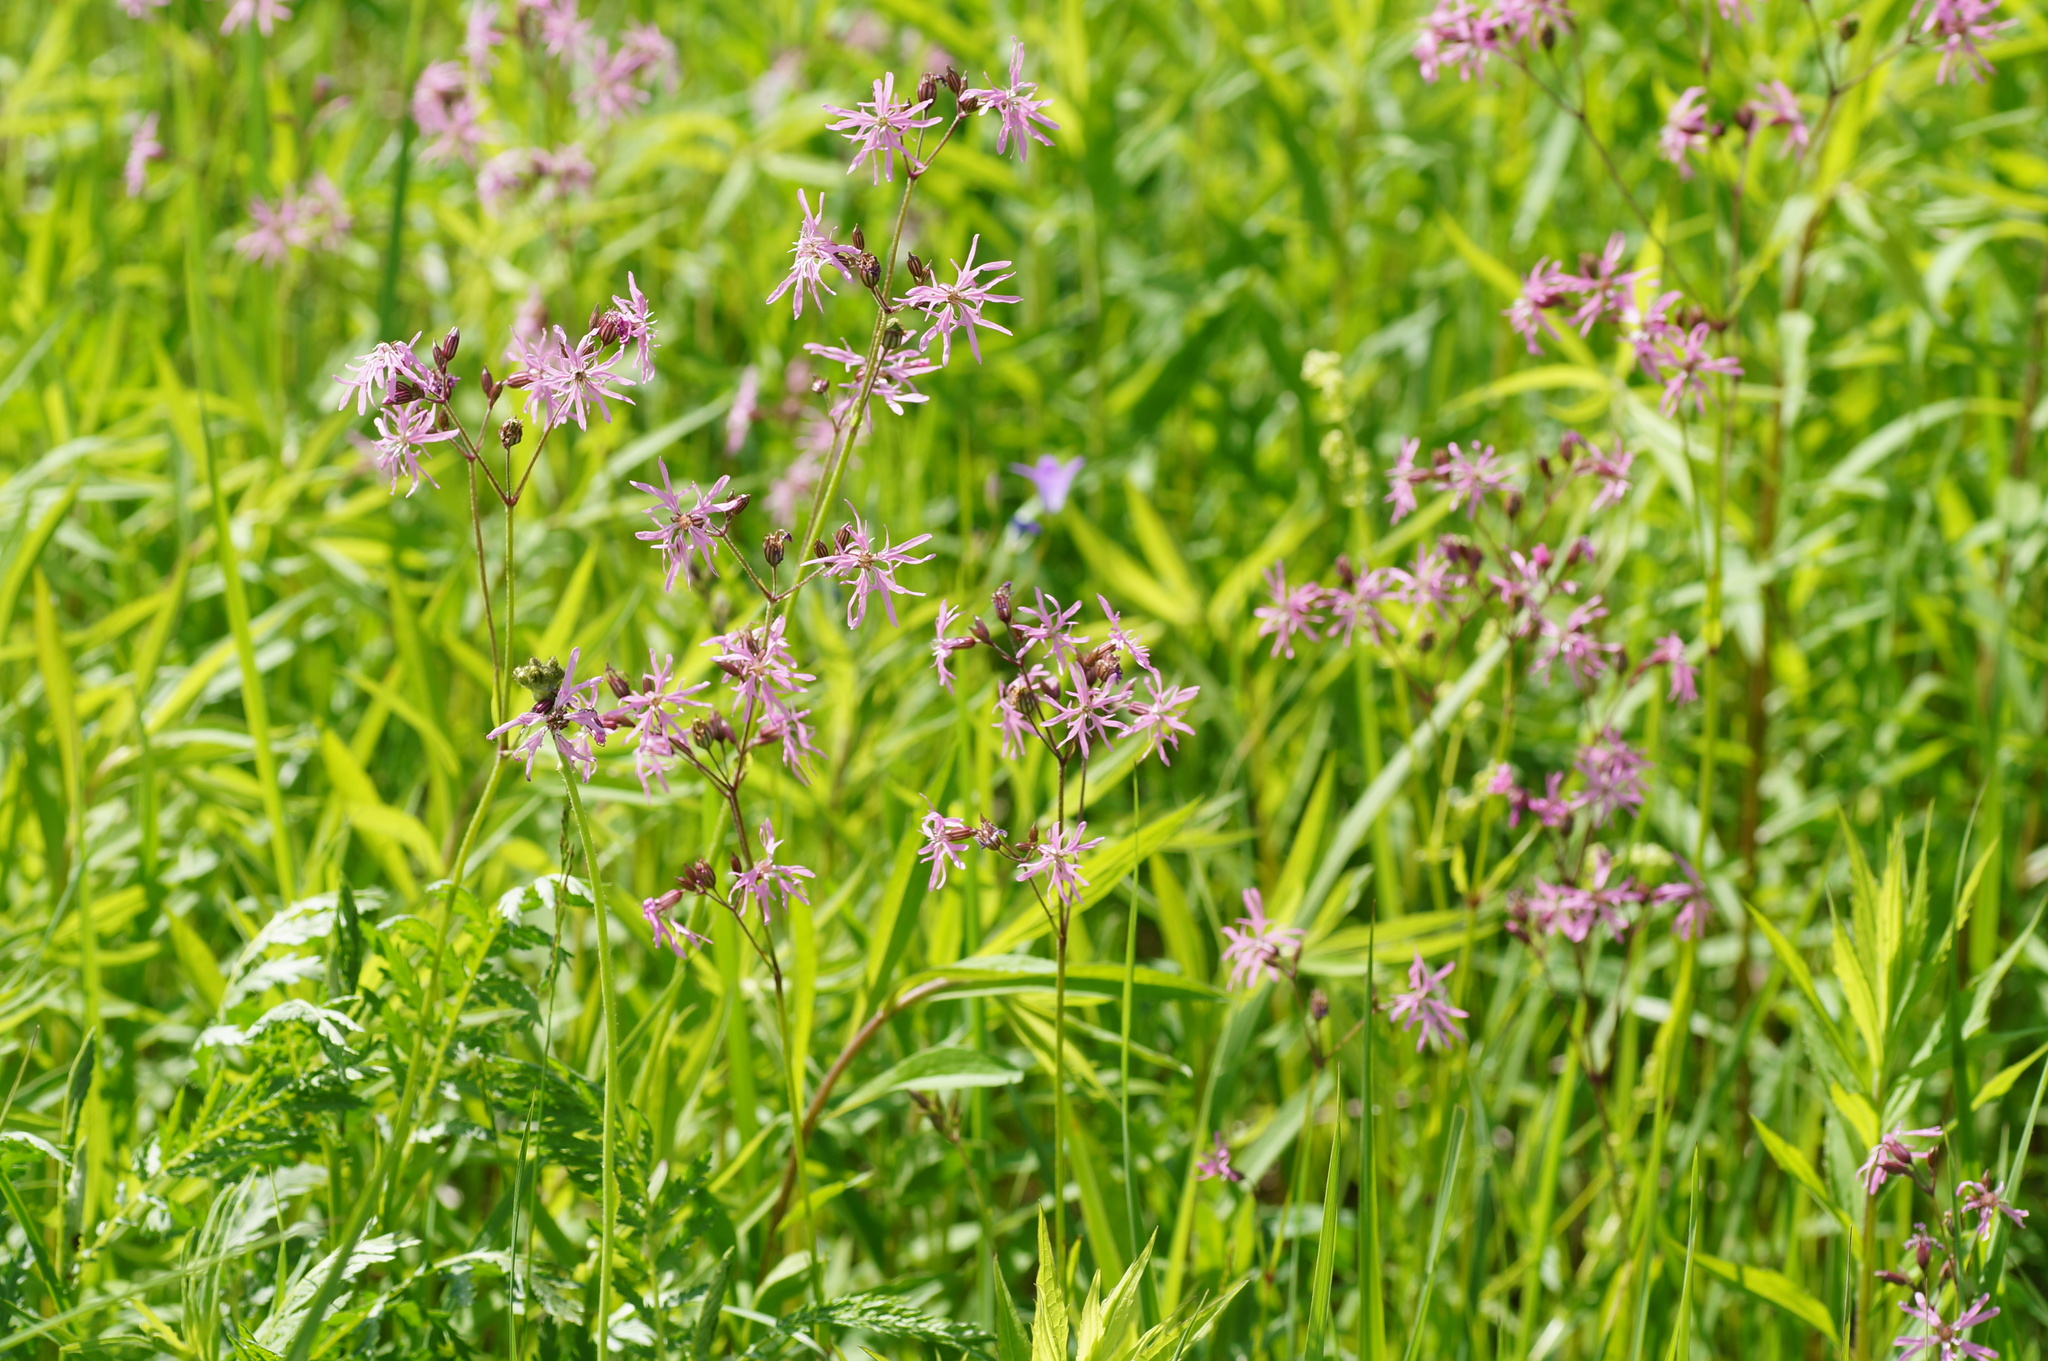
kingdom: Plantae
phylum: Tracheophyta
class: Magnoliopsida
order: Caryophyllales
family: Caryophyllaceae
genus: Silene
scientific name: Silene flos-cuculi
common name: Ragged-robin
